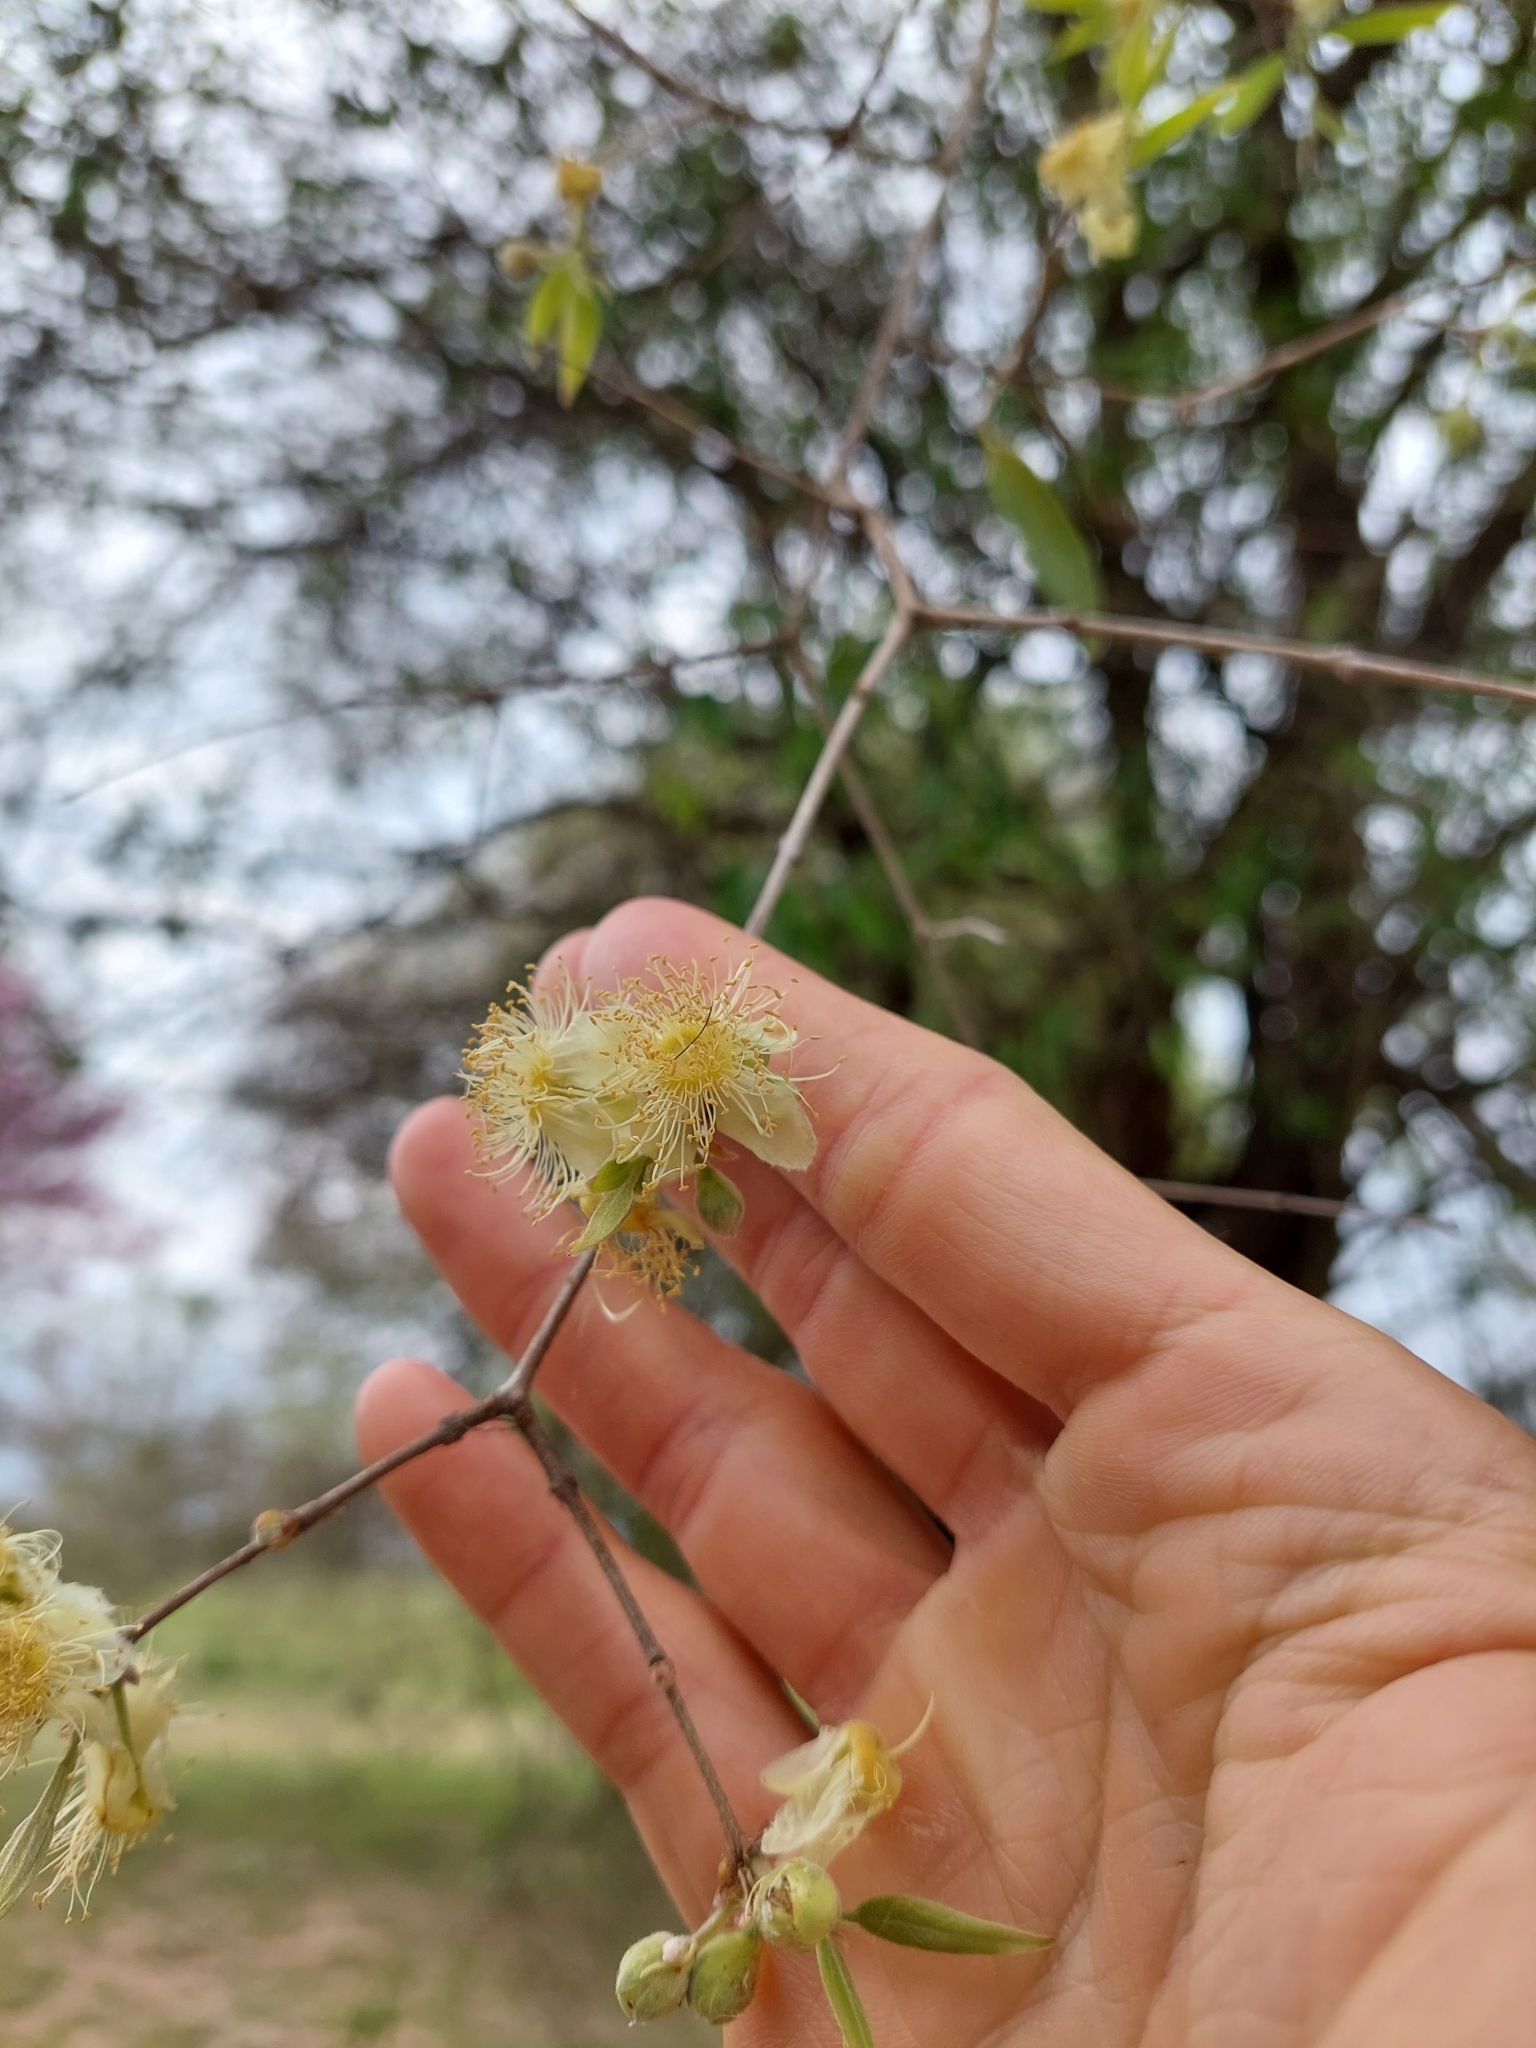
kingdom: Plantae
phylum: Tracheophyta
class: Magnoliopsida
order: Myrtales
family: Myrtaceae
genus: Eugenia
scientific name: Eugenia myrcianthes
